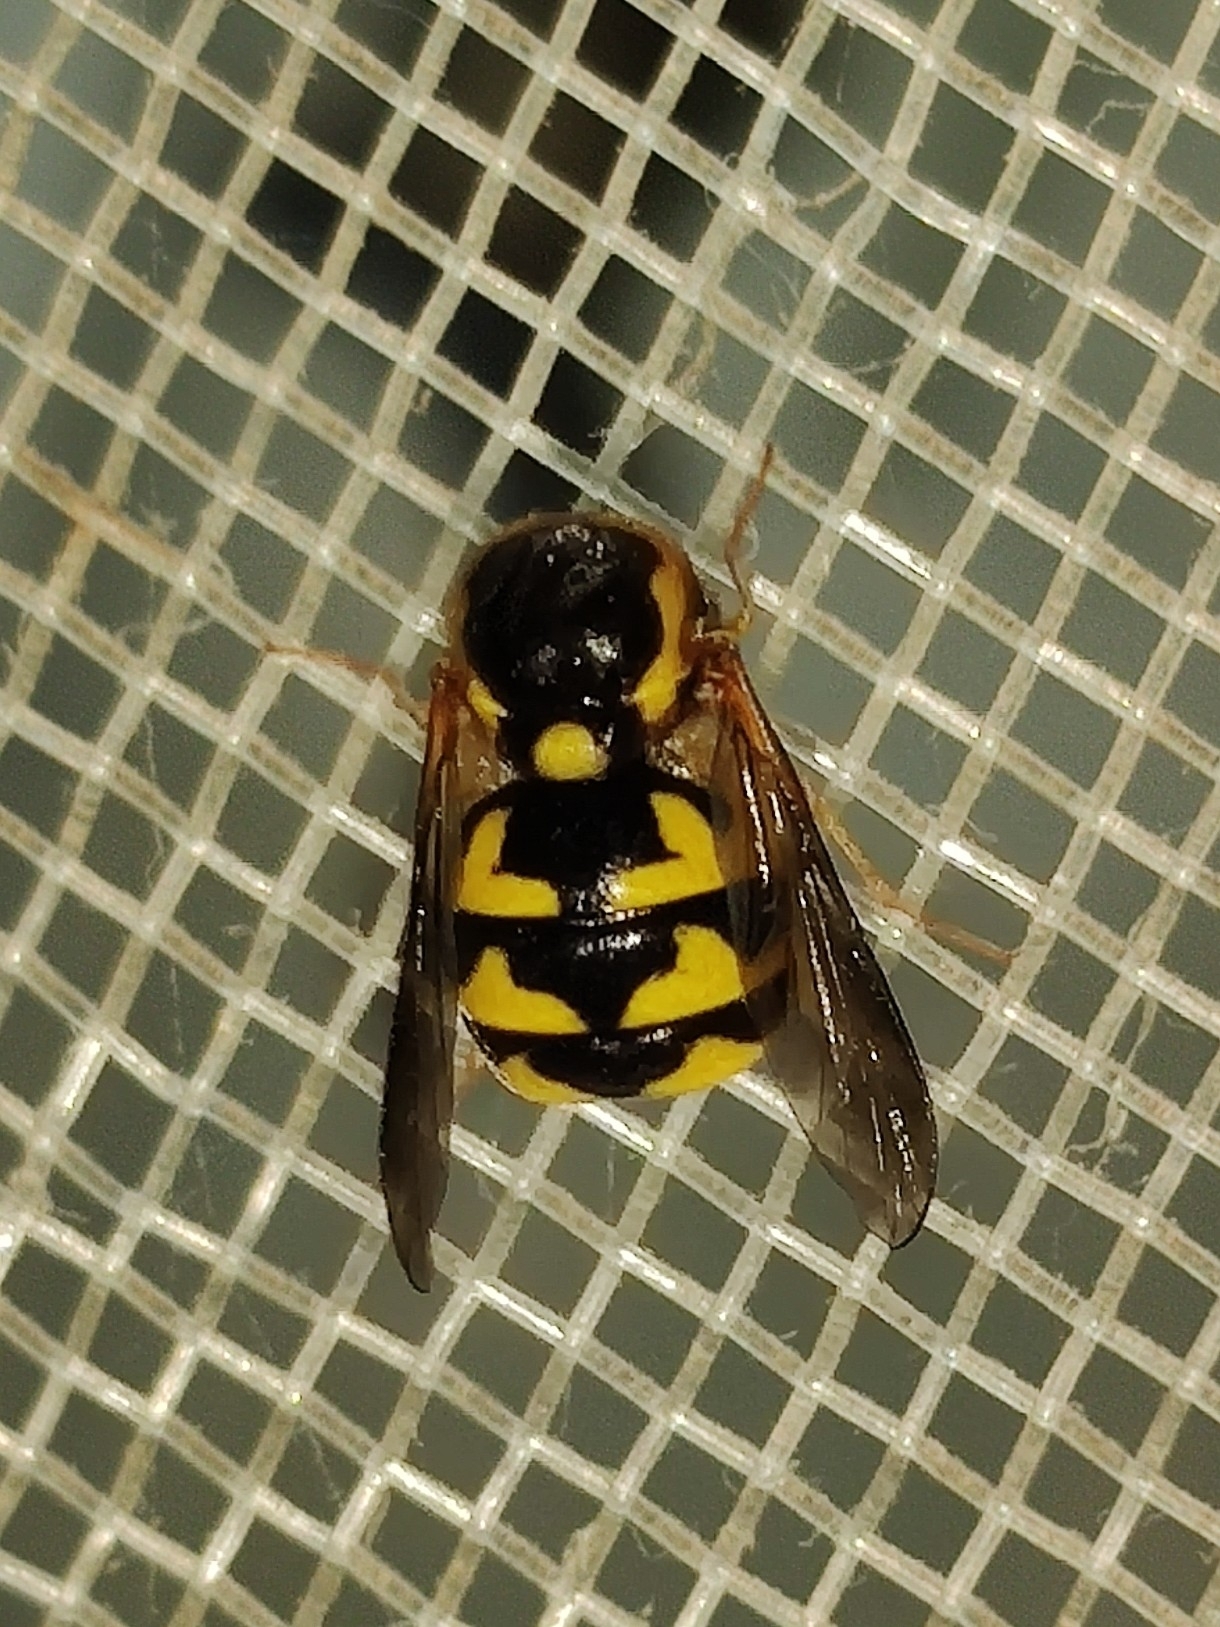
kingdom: Animalia
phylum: Arthropoda
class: Insecta
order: Diptera
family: Acroceridae
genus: Cyrtus
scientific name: Cyrtus gibbus
